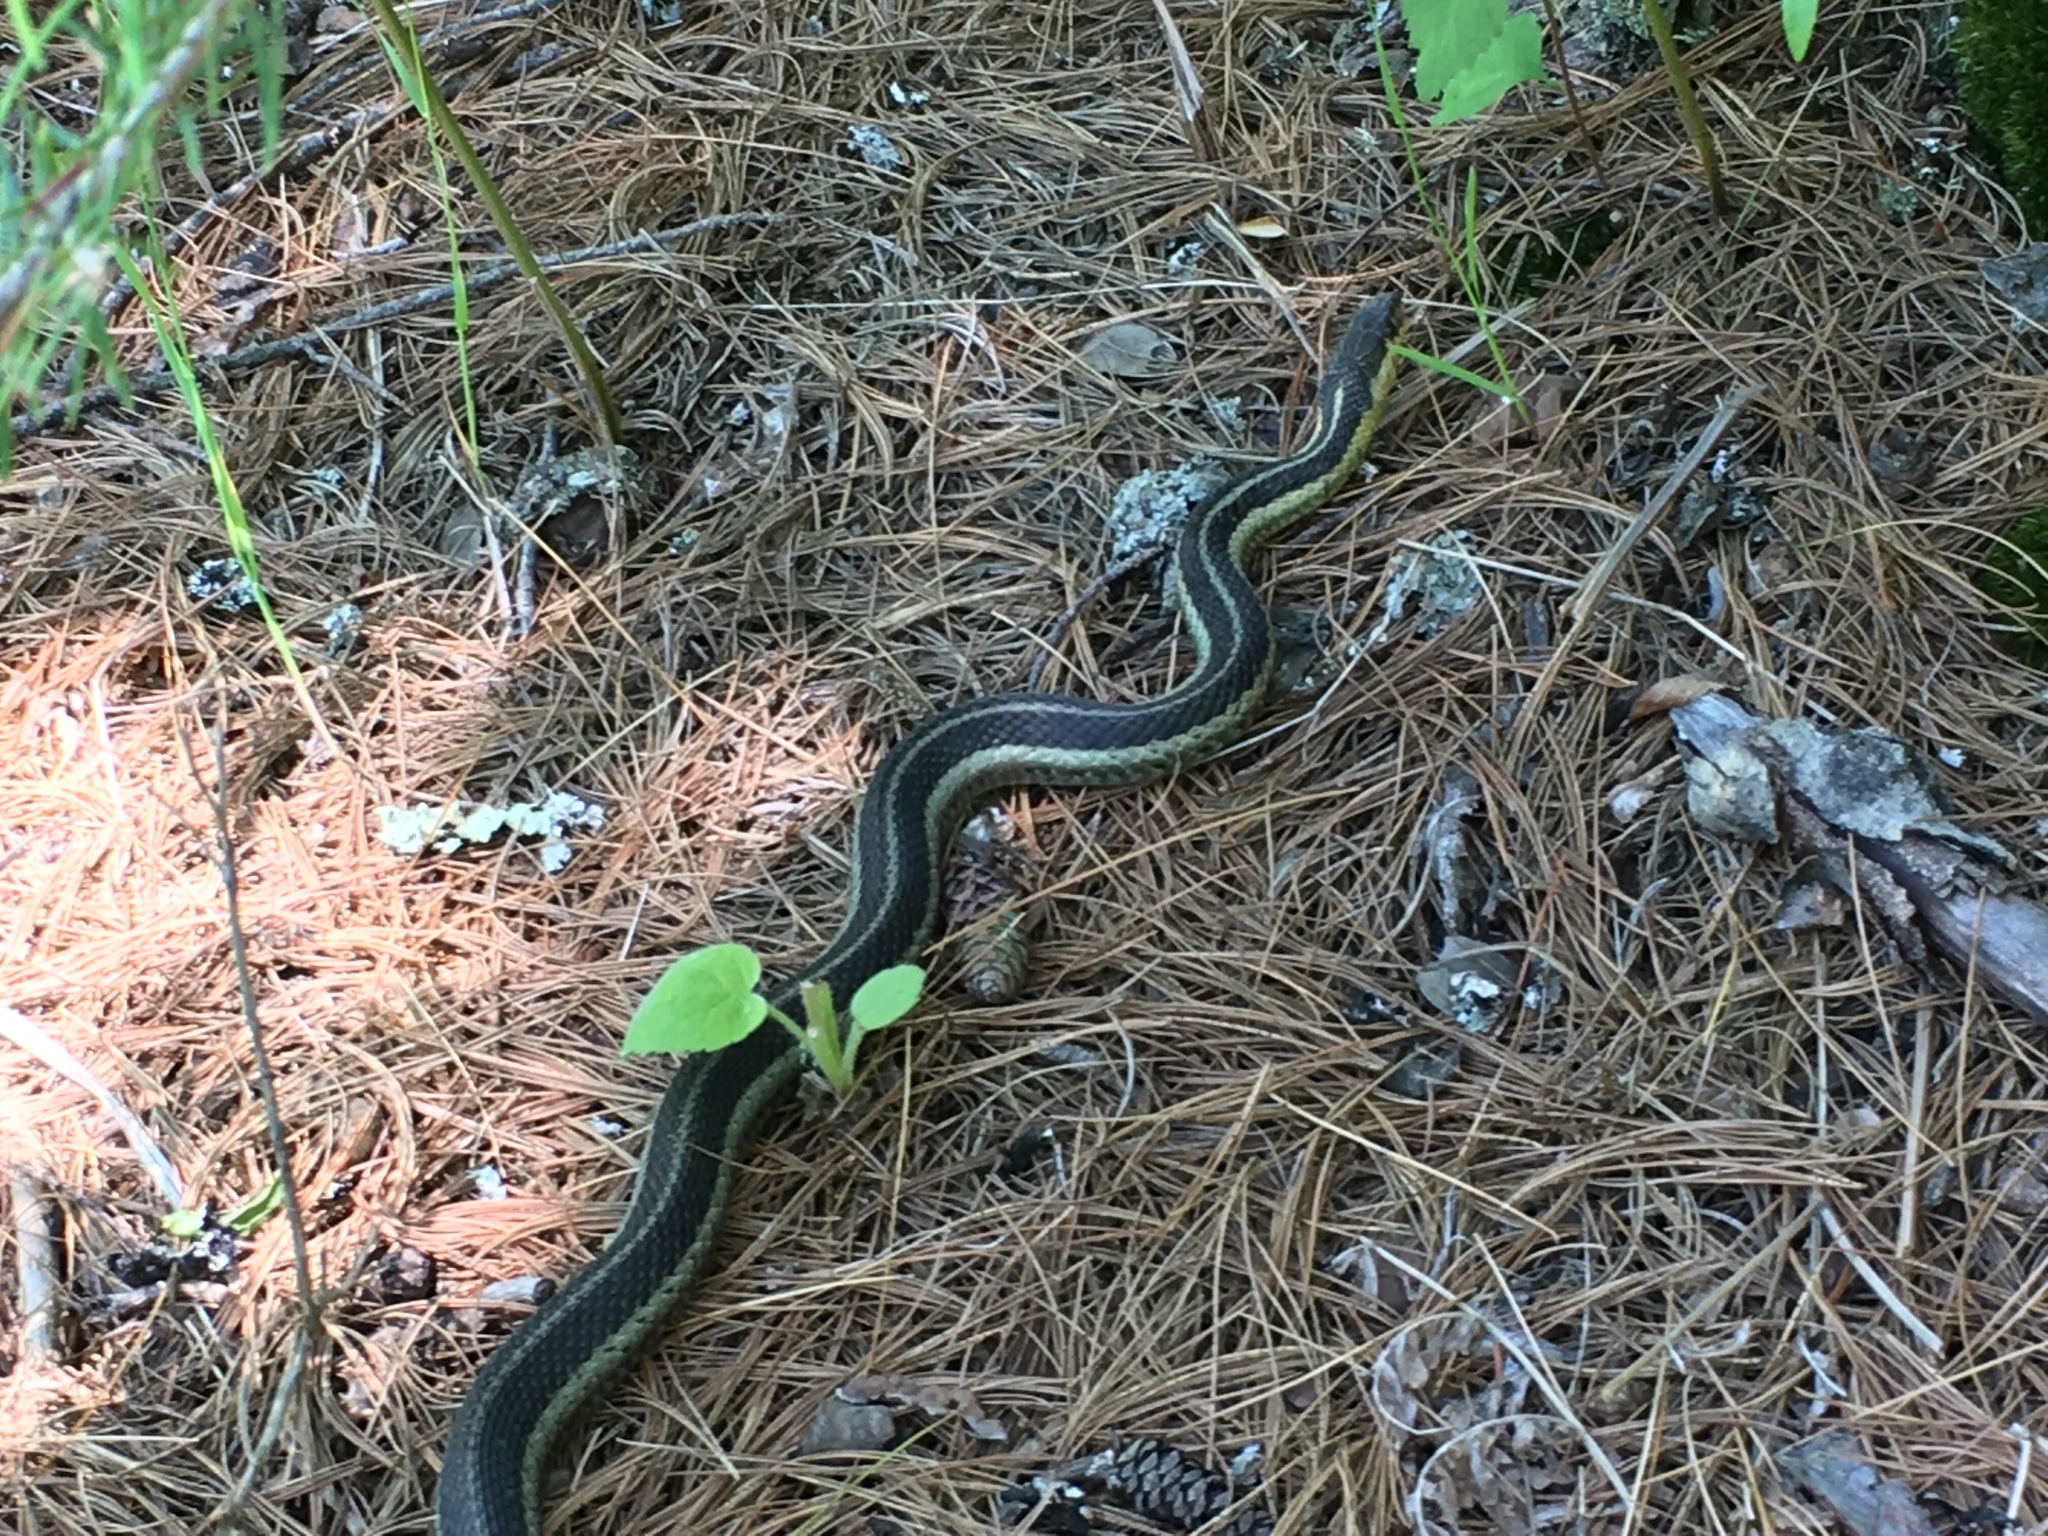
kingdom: Animalia
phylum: Chordata
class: Squamata
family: Colubridae
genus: Thamnophis
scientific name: Thamnophis sirtalis
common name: Common garter snake
